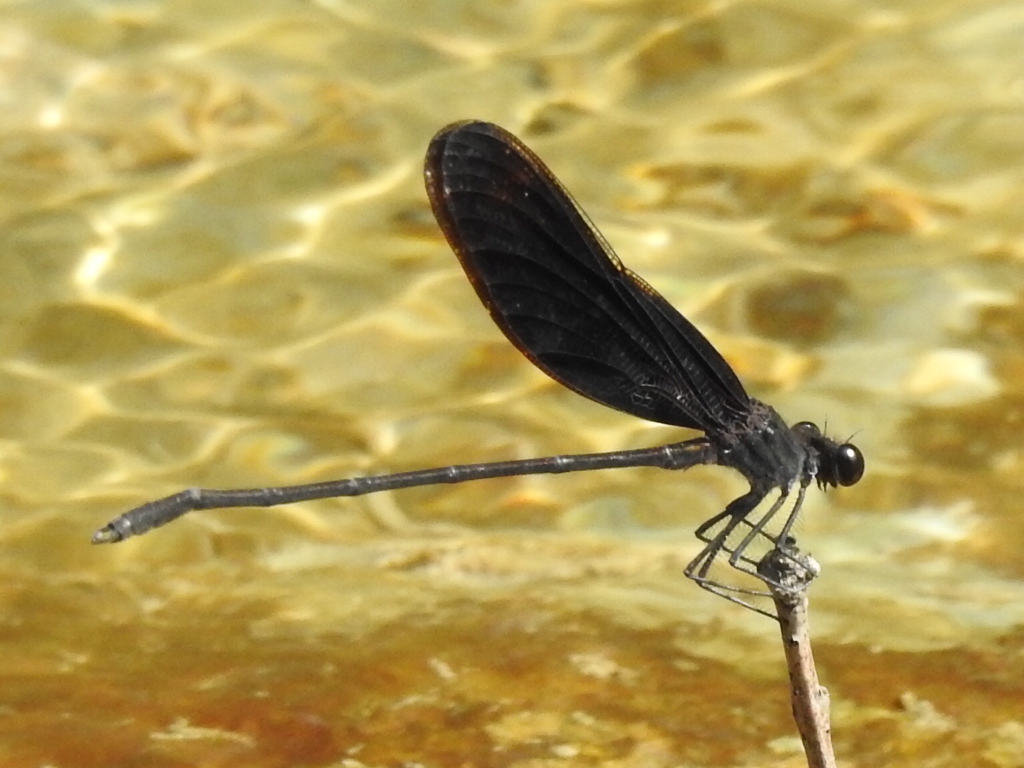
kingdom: Animalia
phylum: Arthropoda
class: Insecta
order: Odonata
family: Calopterygidae
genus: Hetaerina
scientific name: Hetaerina titia
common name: Smoky rubyspot
